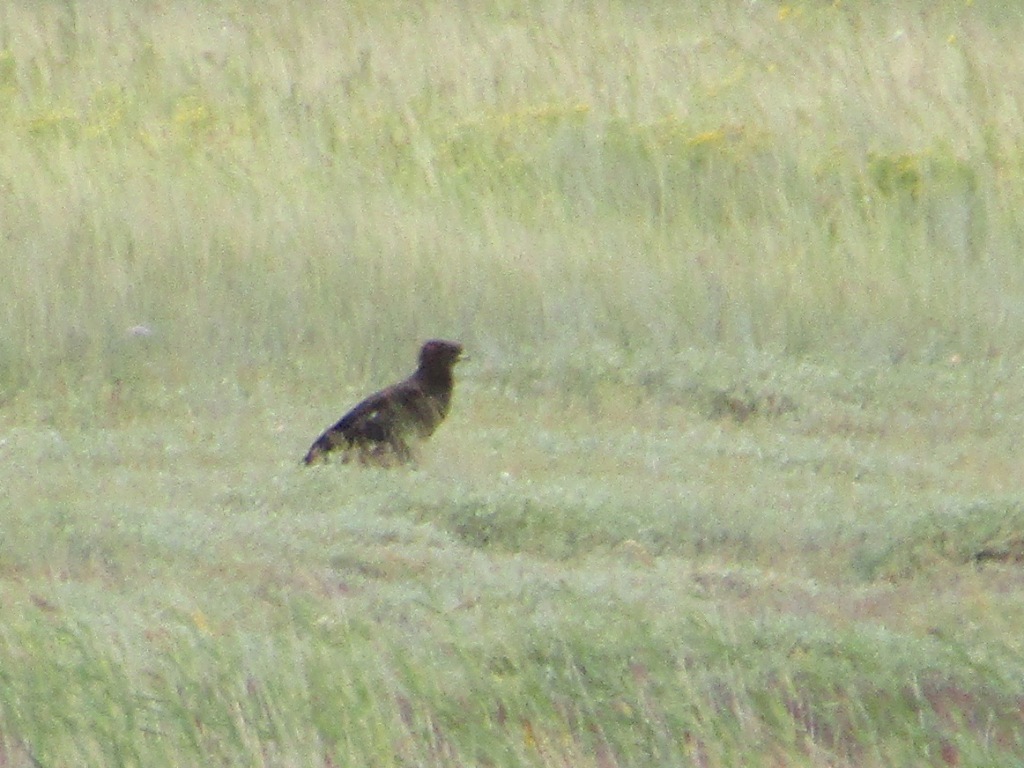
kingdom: Animalia
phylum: Chordata
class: Aves
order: Accipitriformes
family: Accipitridae
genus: Aquila
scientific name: Aquila clanga
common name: Greater spotted eagle
